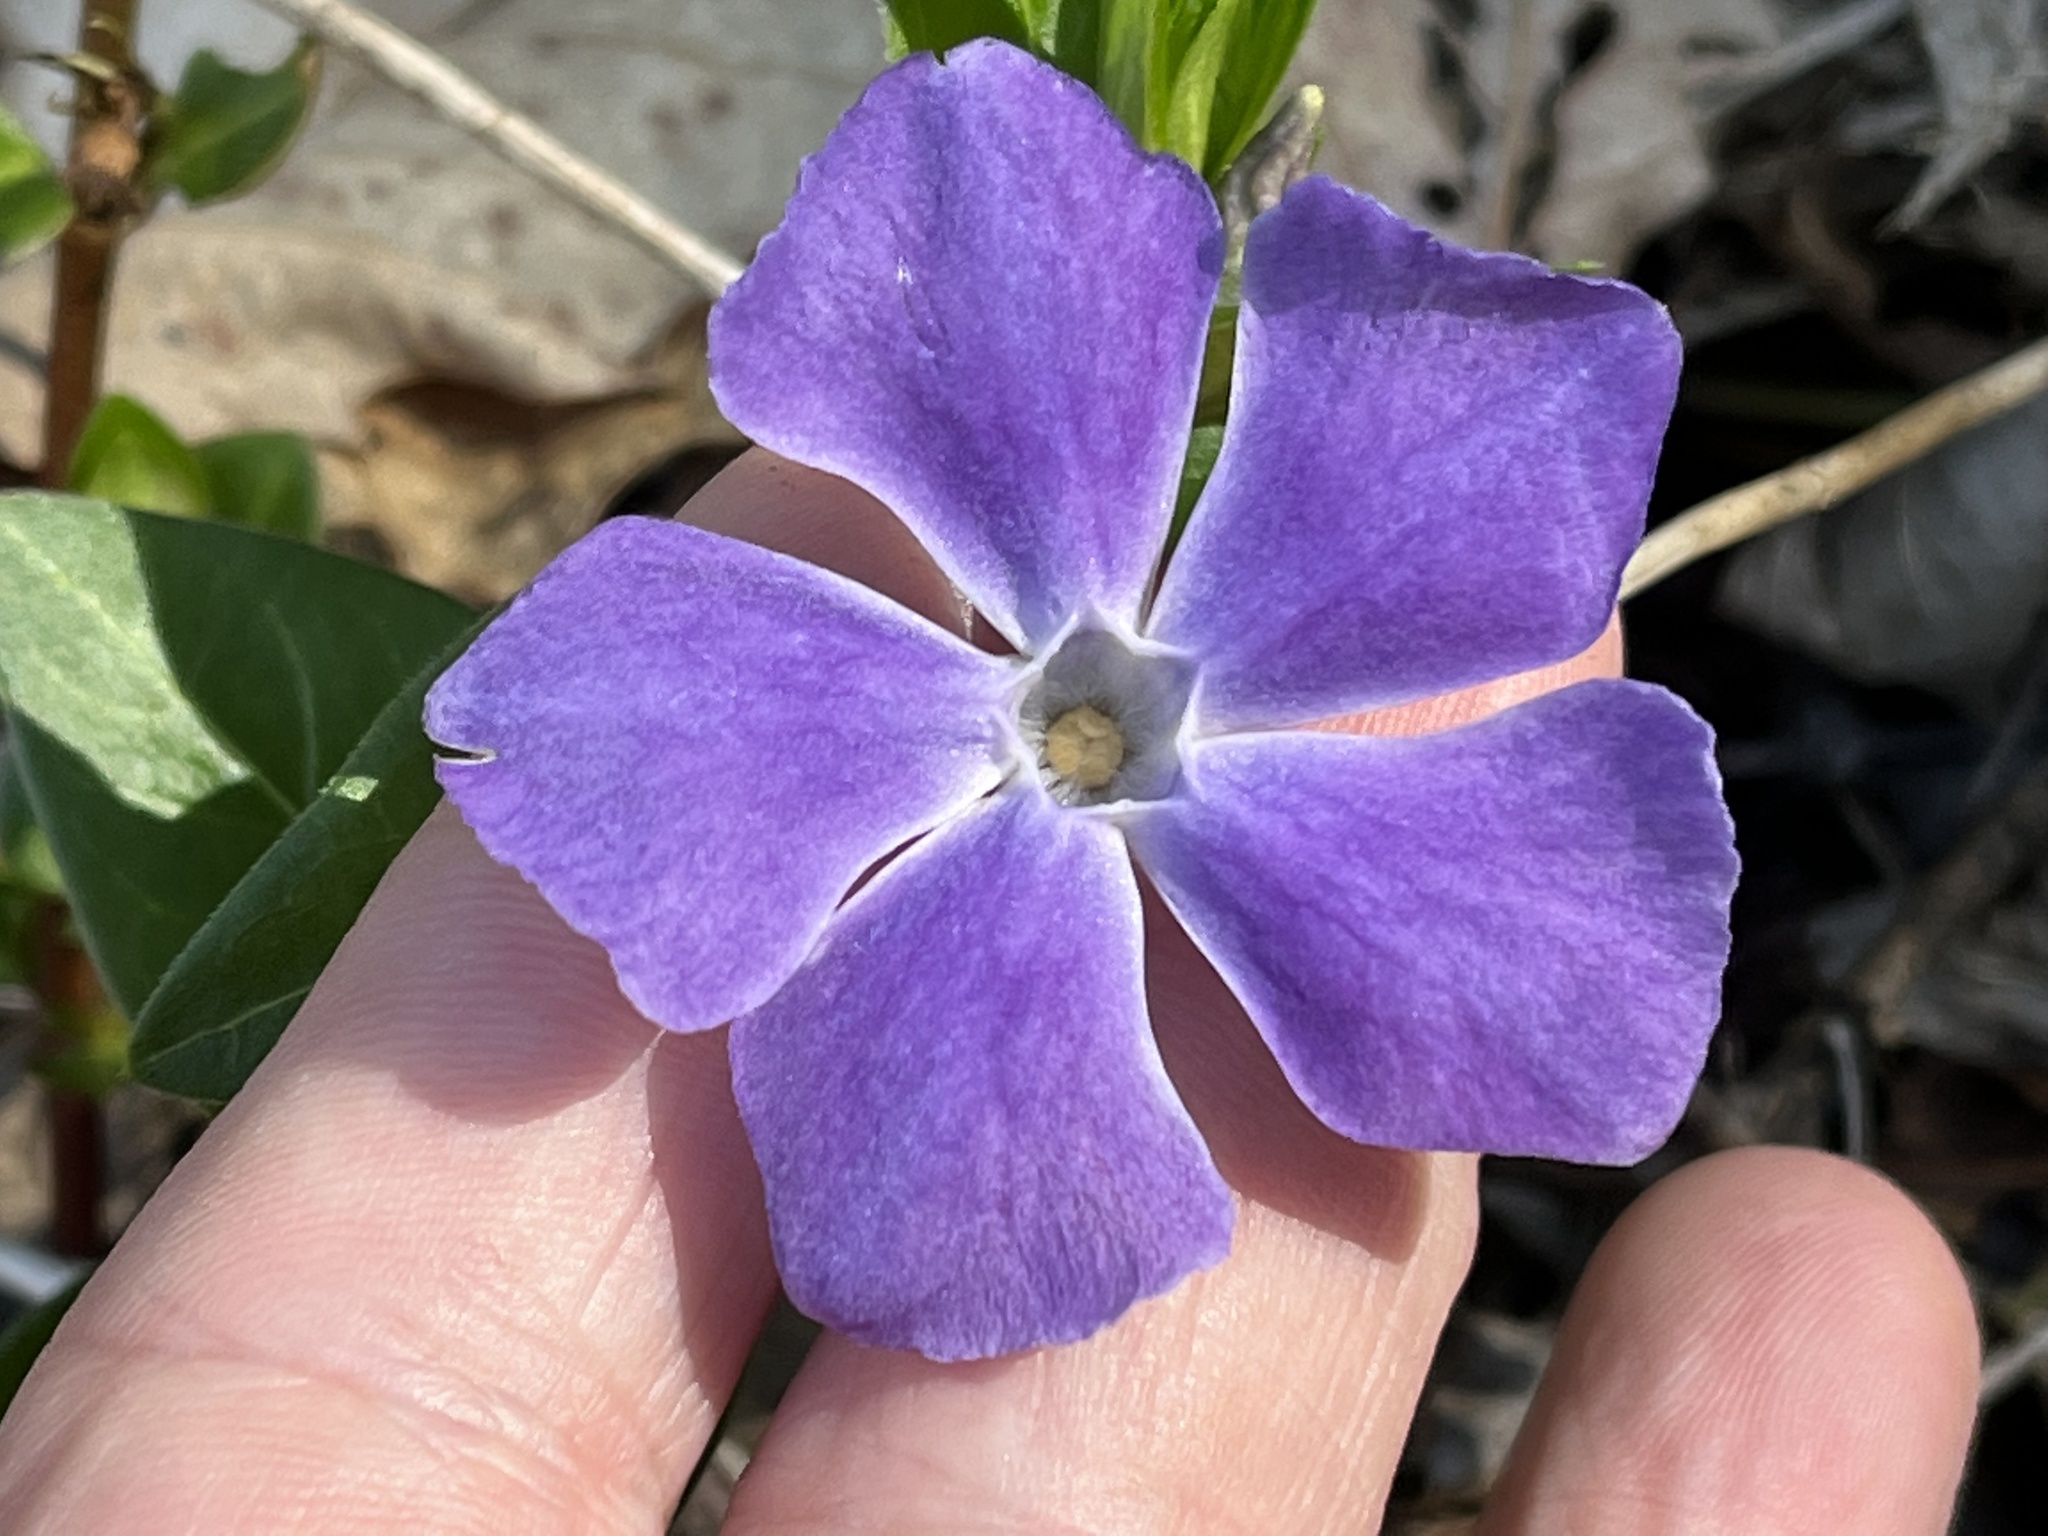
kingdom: Plantae
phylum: Tracheophyta
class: Magnoliopsida
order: Gentianales
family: Apocynaceae
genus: Vinca
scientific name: Vinca major
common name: Greater periwinkle
